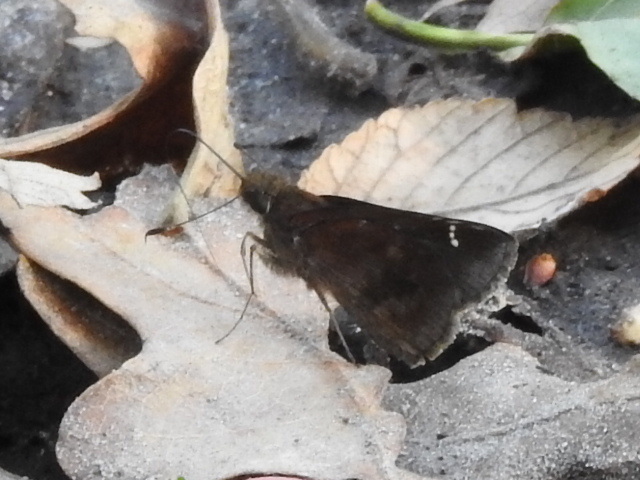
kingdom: Animalia
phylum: Arthropoda
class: Insecta
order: Lepidoptera
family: Hesperiidae
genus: Lerema
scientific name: Lerema accius
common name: Clouded skipper
